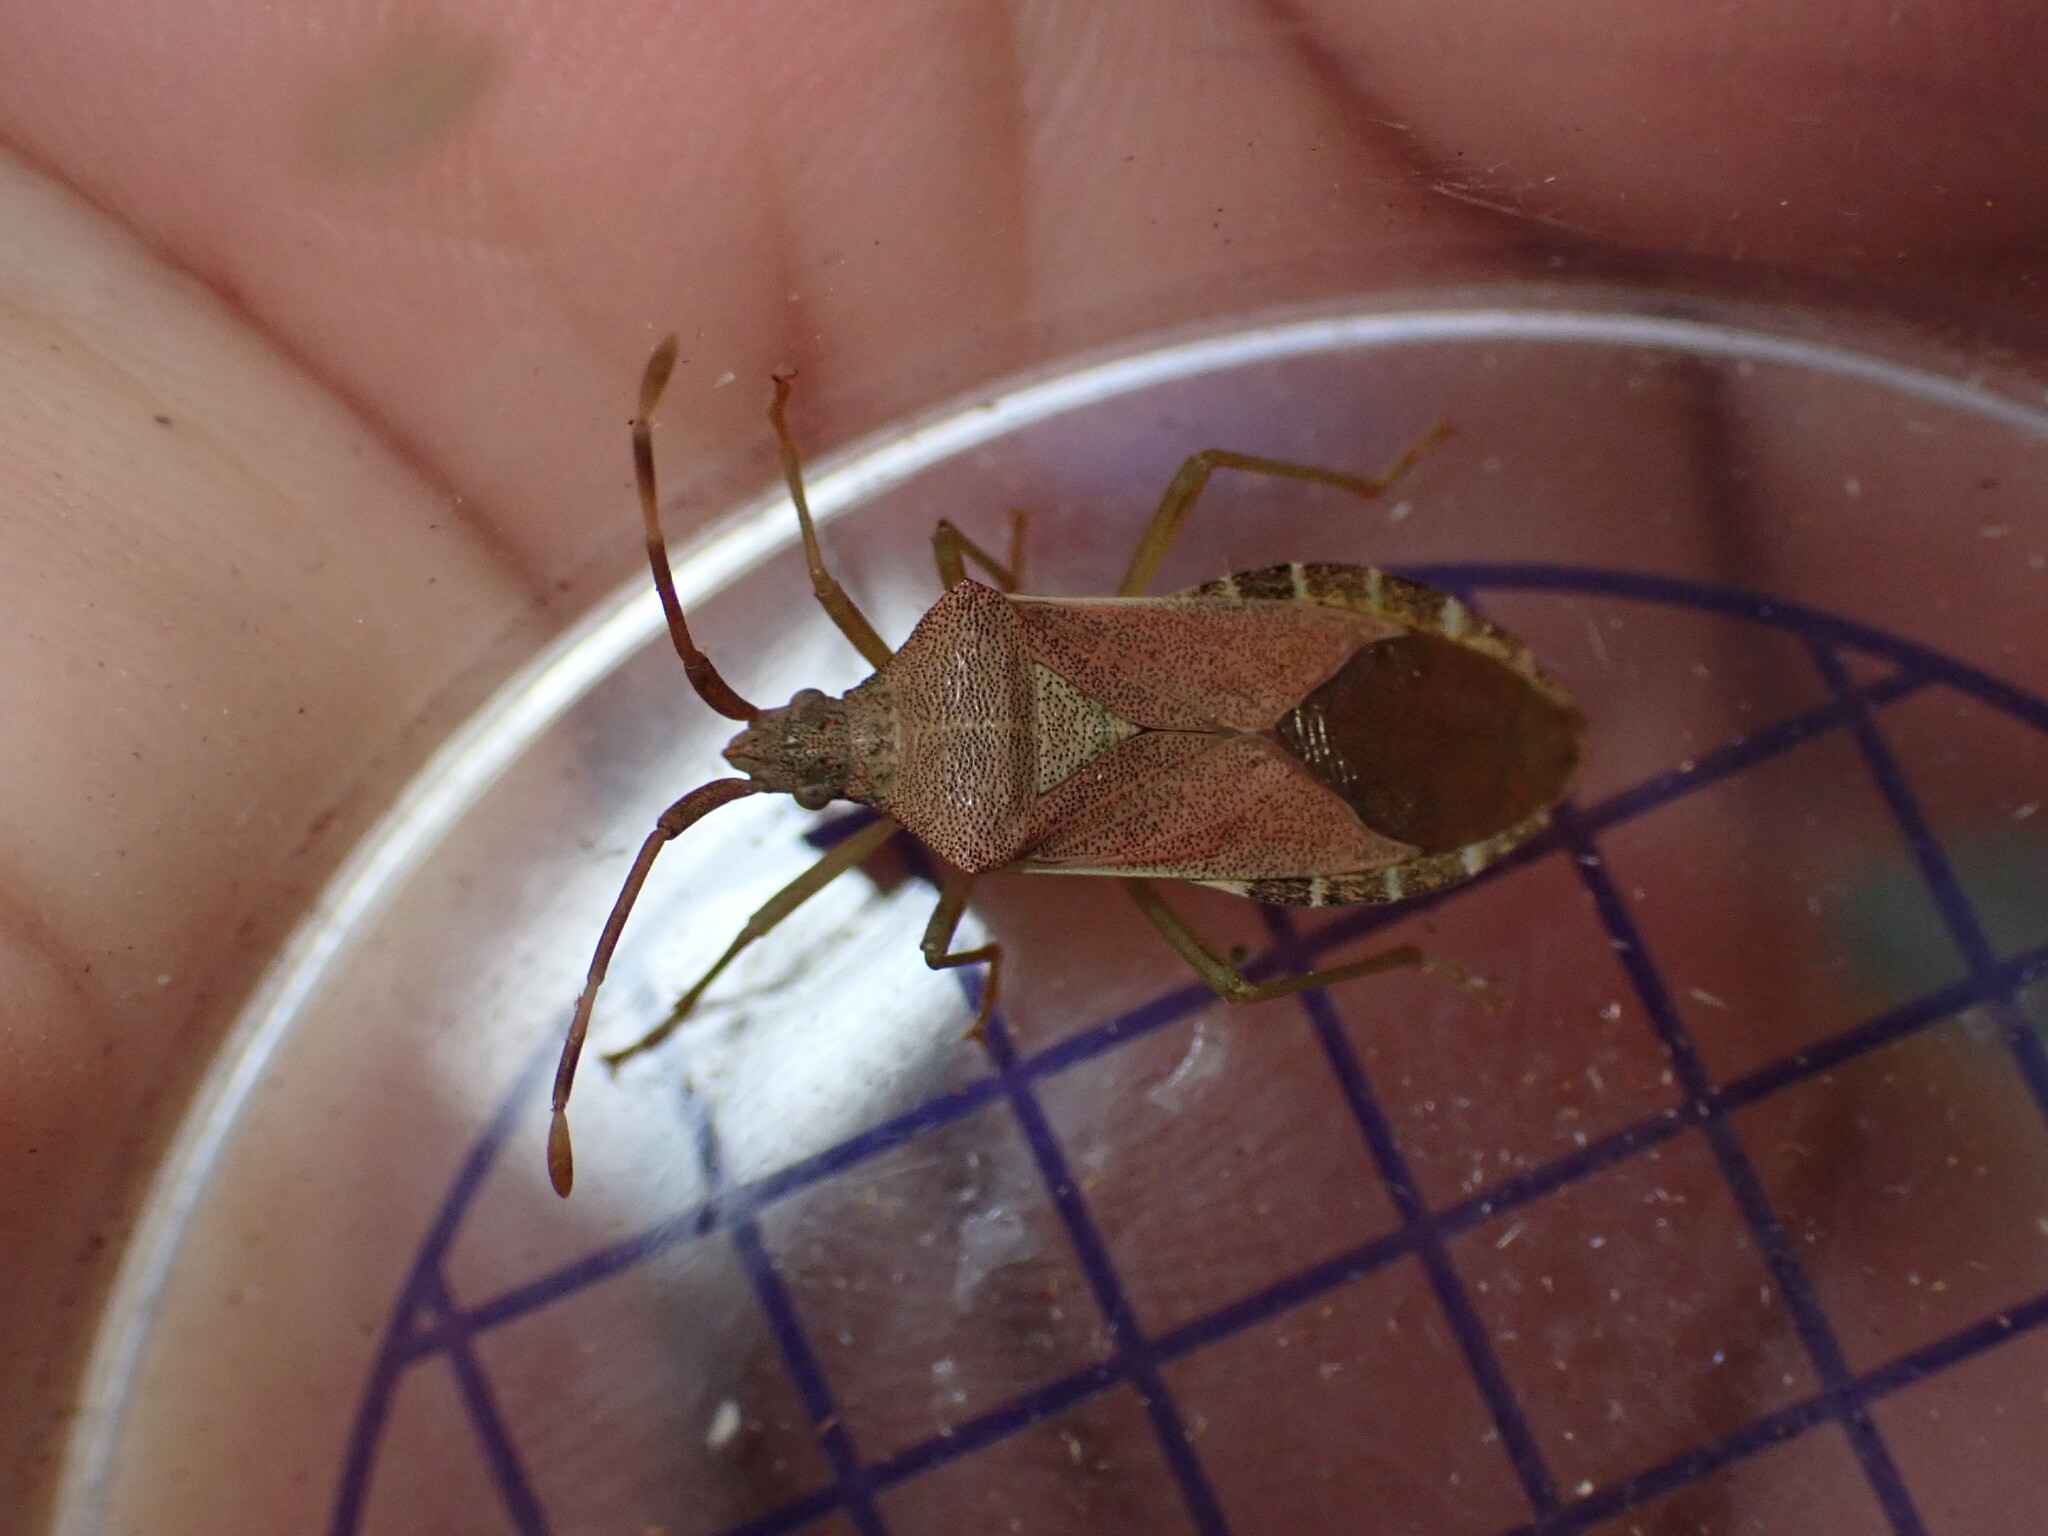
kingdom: Animalia
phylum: Arthropoda
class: Insecta
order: Hemiptera
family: Coreidae
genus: Gonocerus
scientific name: Gonocerus acuteangulatus
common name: Box bug
